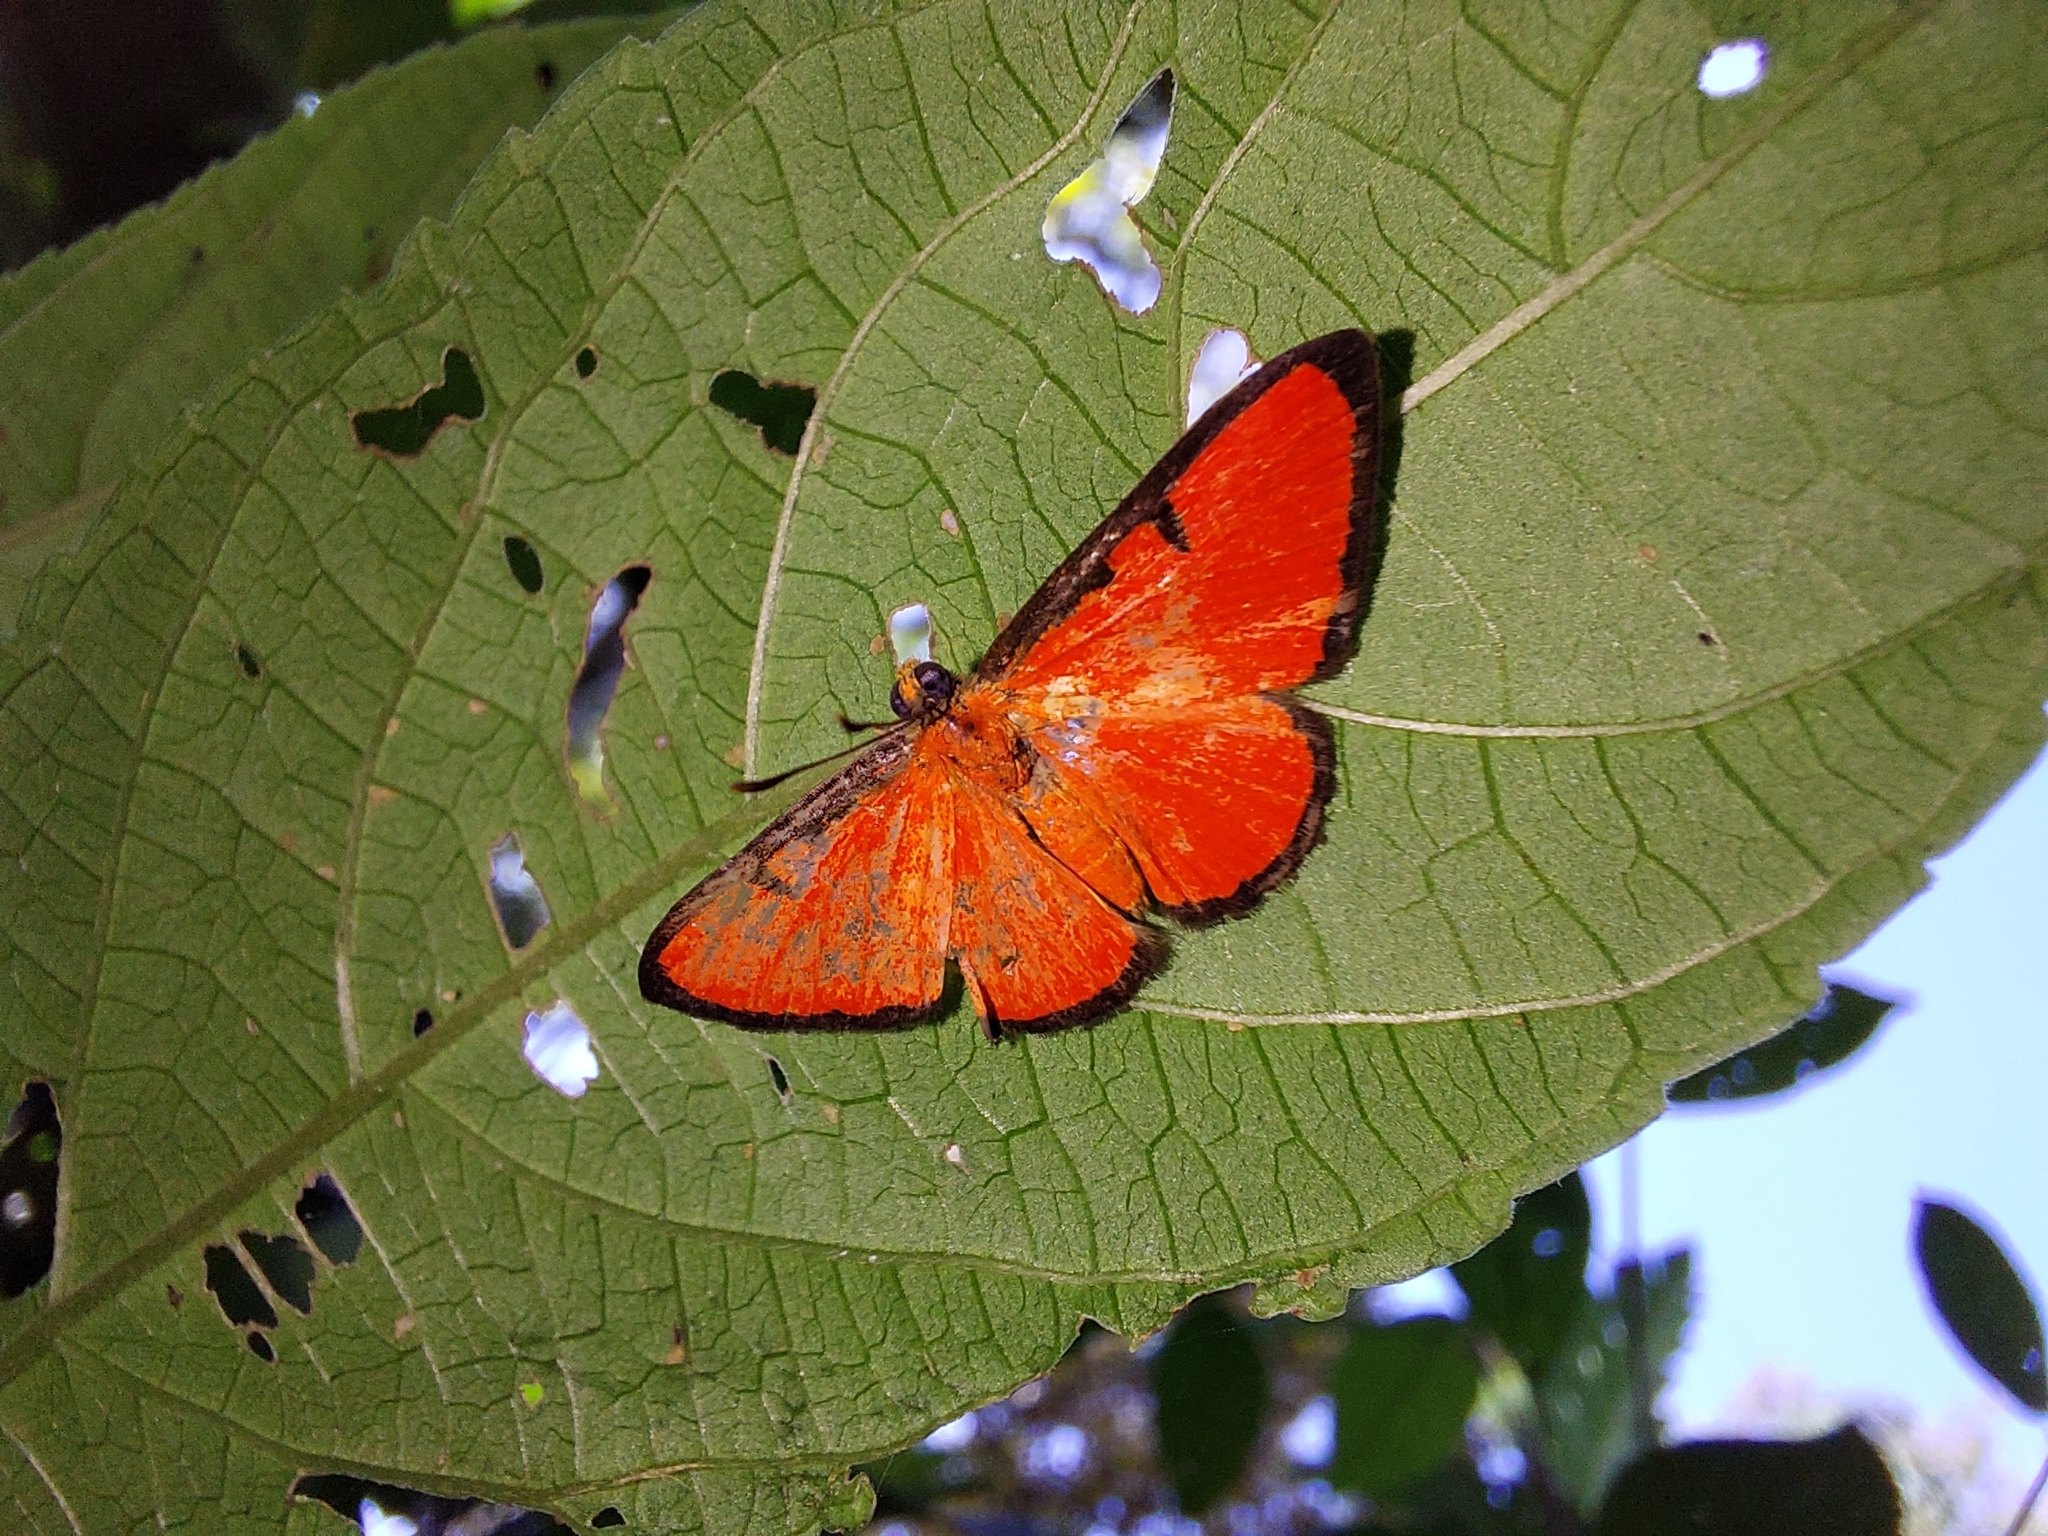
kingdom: Animalia
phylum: Arthropoda
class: Insecta
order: Lepidoptera
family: Lycaenidae
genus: Mesene
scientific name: Mesene phareus
